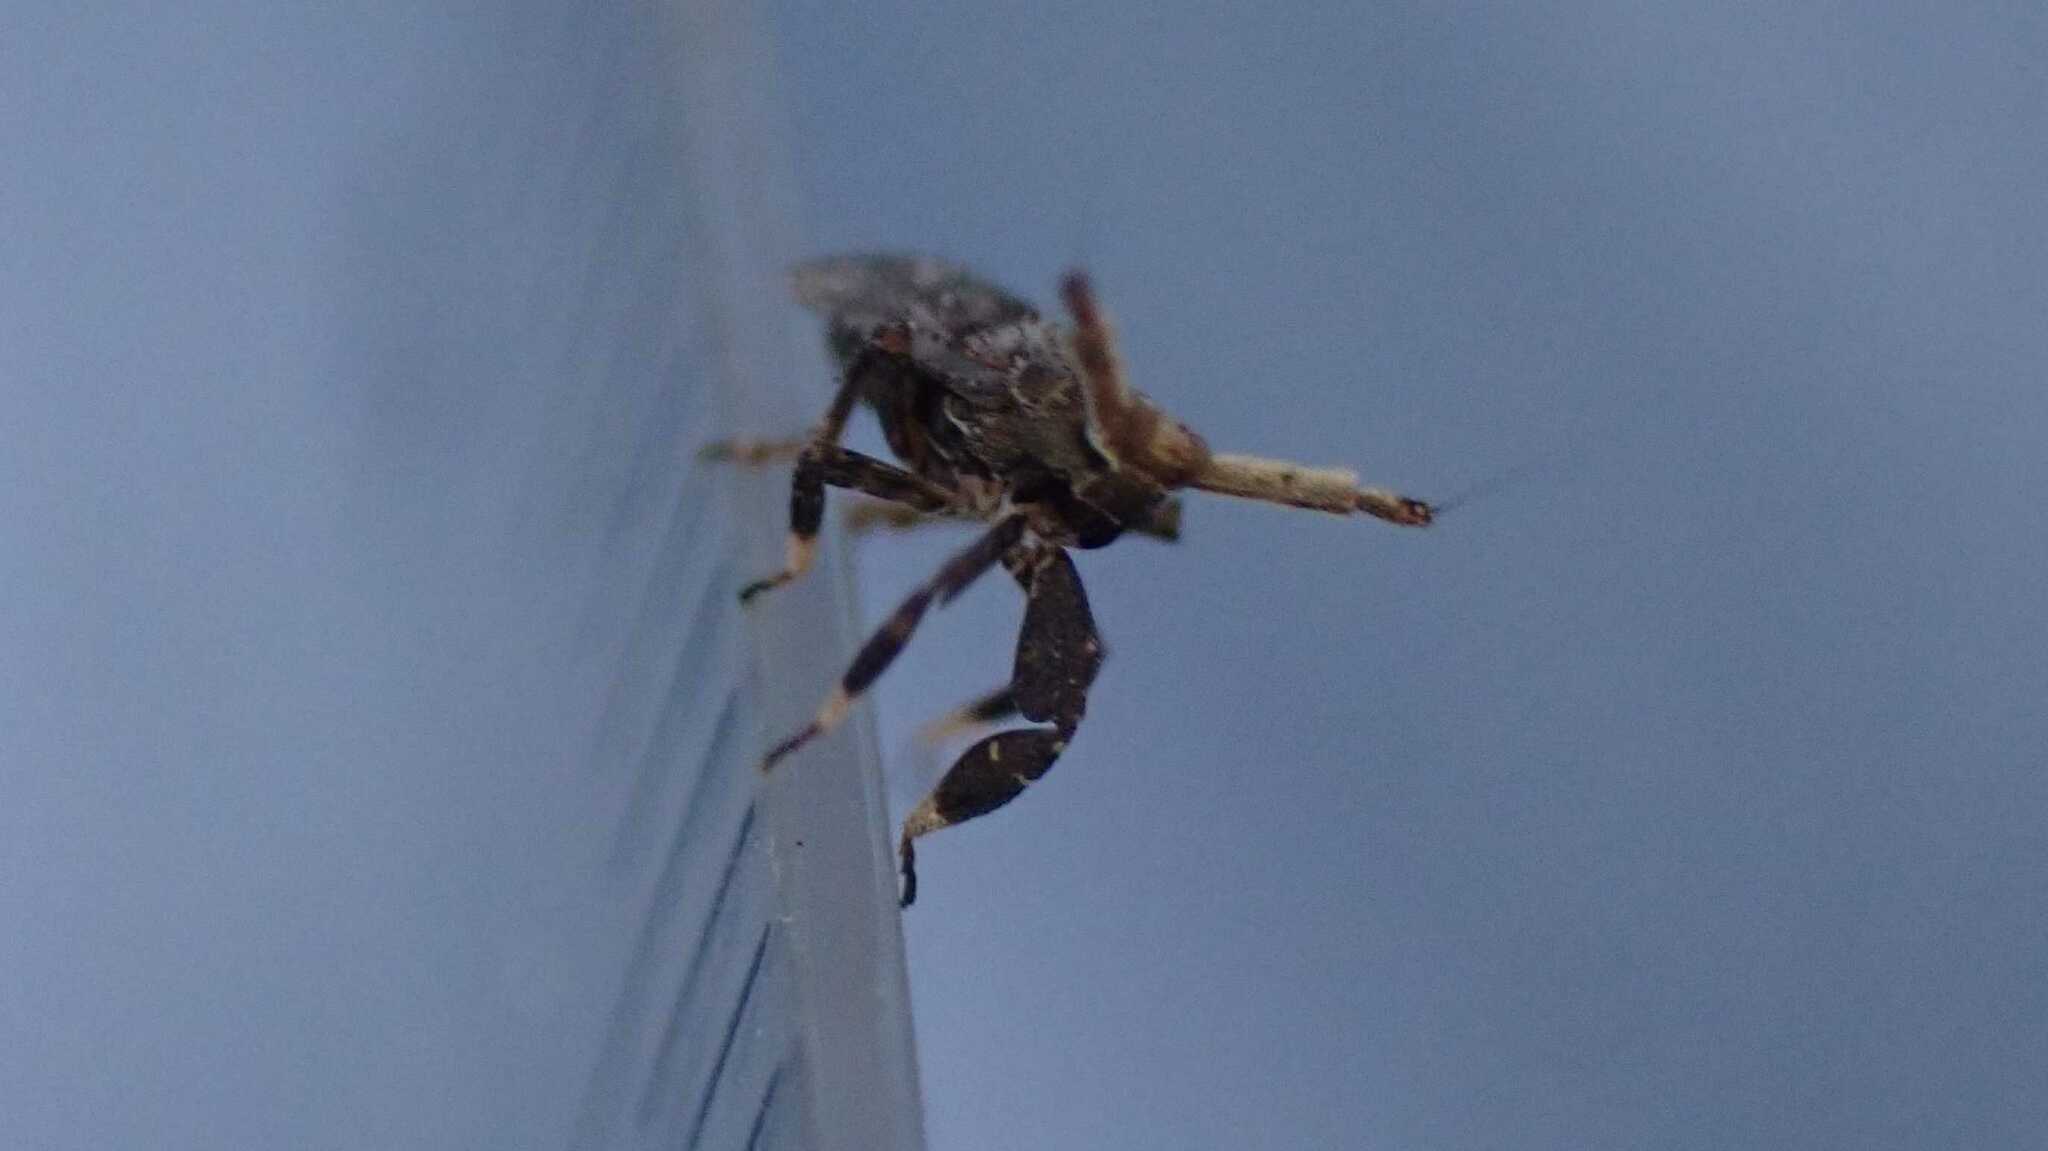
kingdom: Animalia
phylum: Arthropoda
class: Insecta
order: Hemiptera
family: Delphacidae
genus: Asiraca
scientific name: Asiraca clavicornis
